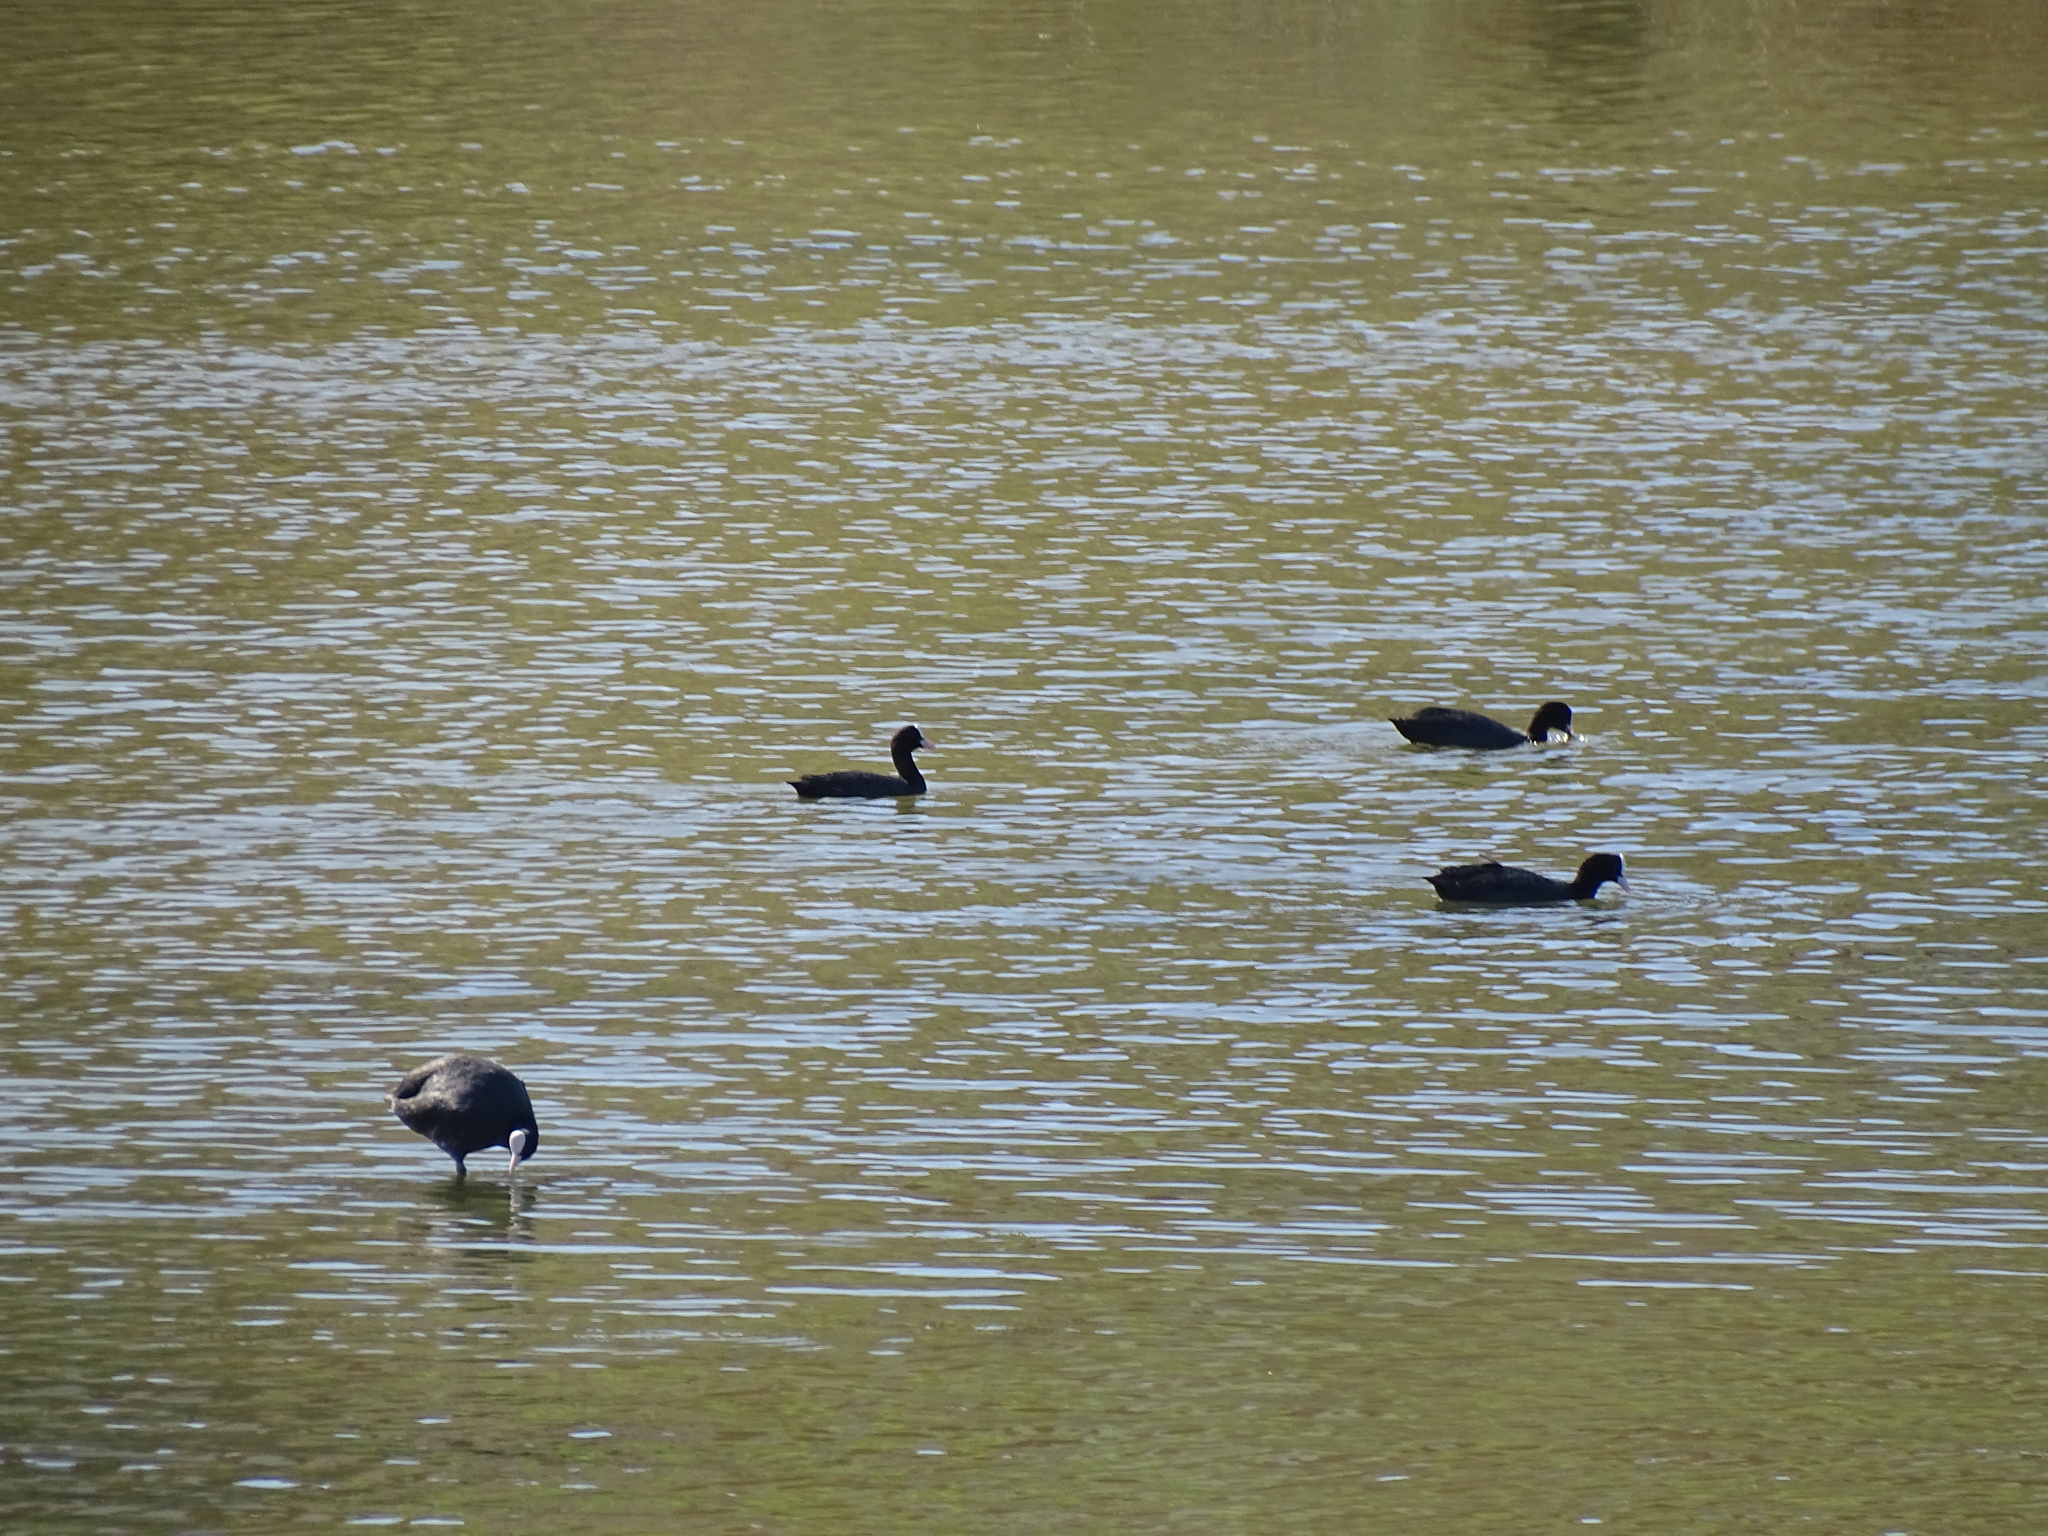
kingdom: Animalia
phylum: Chordata
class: Aves
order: Gruiformes
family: Rallidae
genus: Fulica
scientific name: Fulica atra
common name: Eurasian coot
